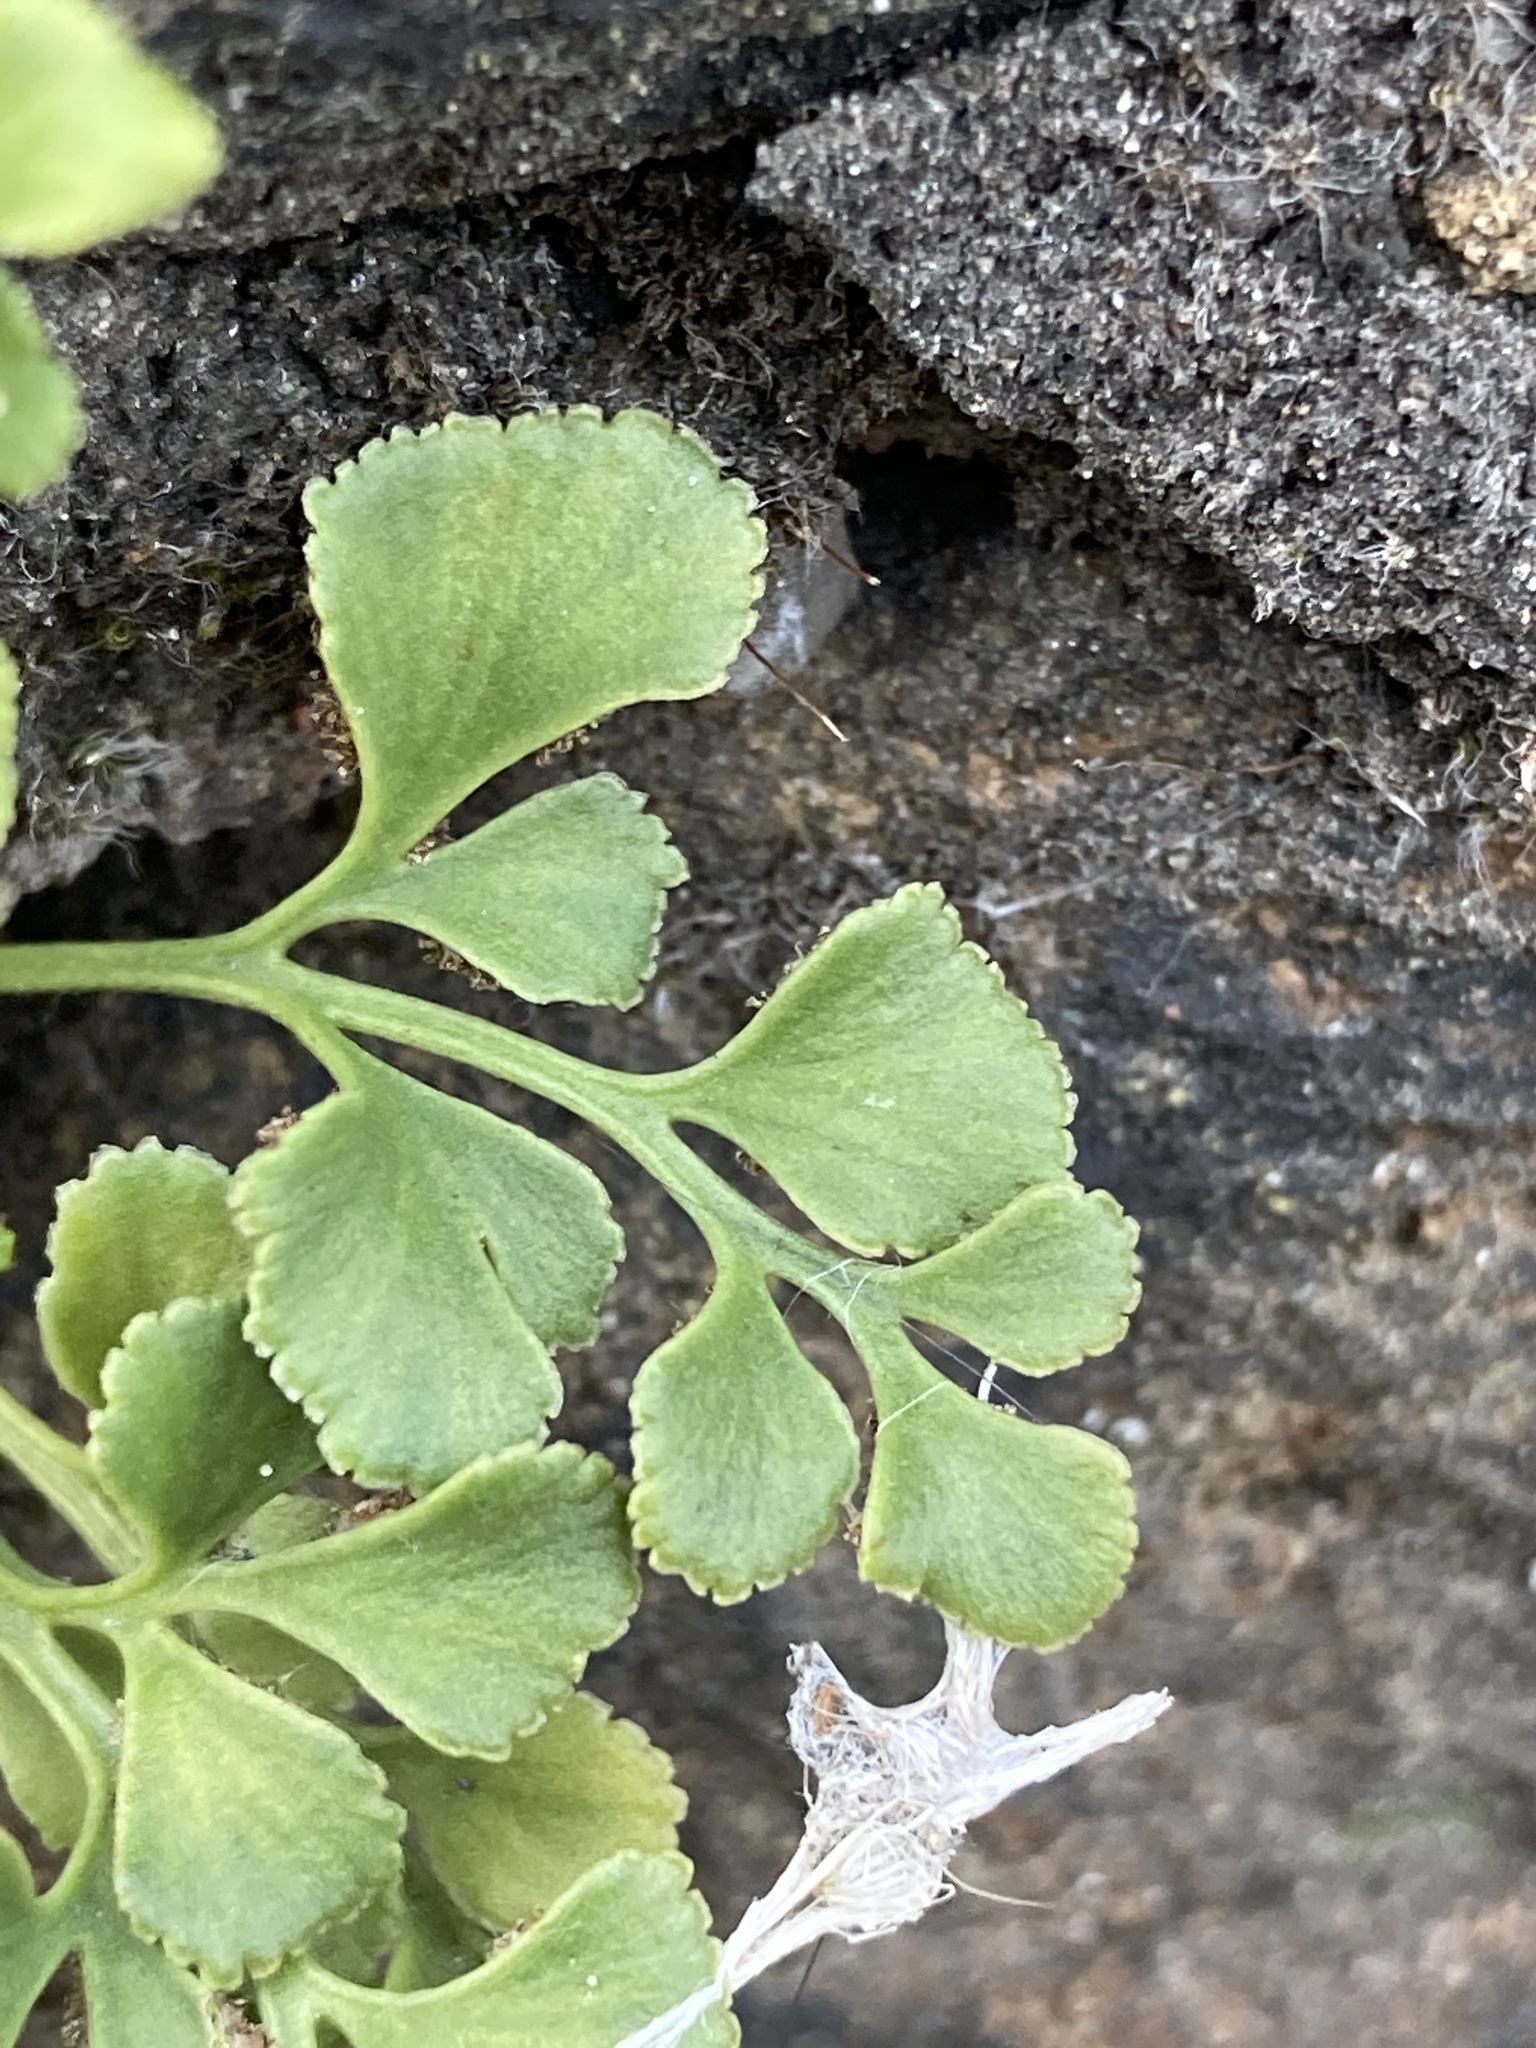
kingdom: Plantae
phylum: Tracheophyta
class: Polypodiopsida
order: Polypodiales
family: Aspleniaceae
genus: Asplenium
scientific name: Asplenium ruta-muraria
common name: Wall-rue
